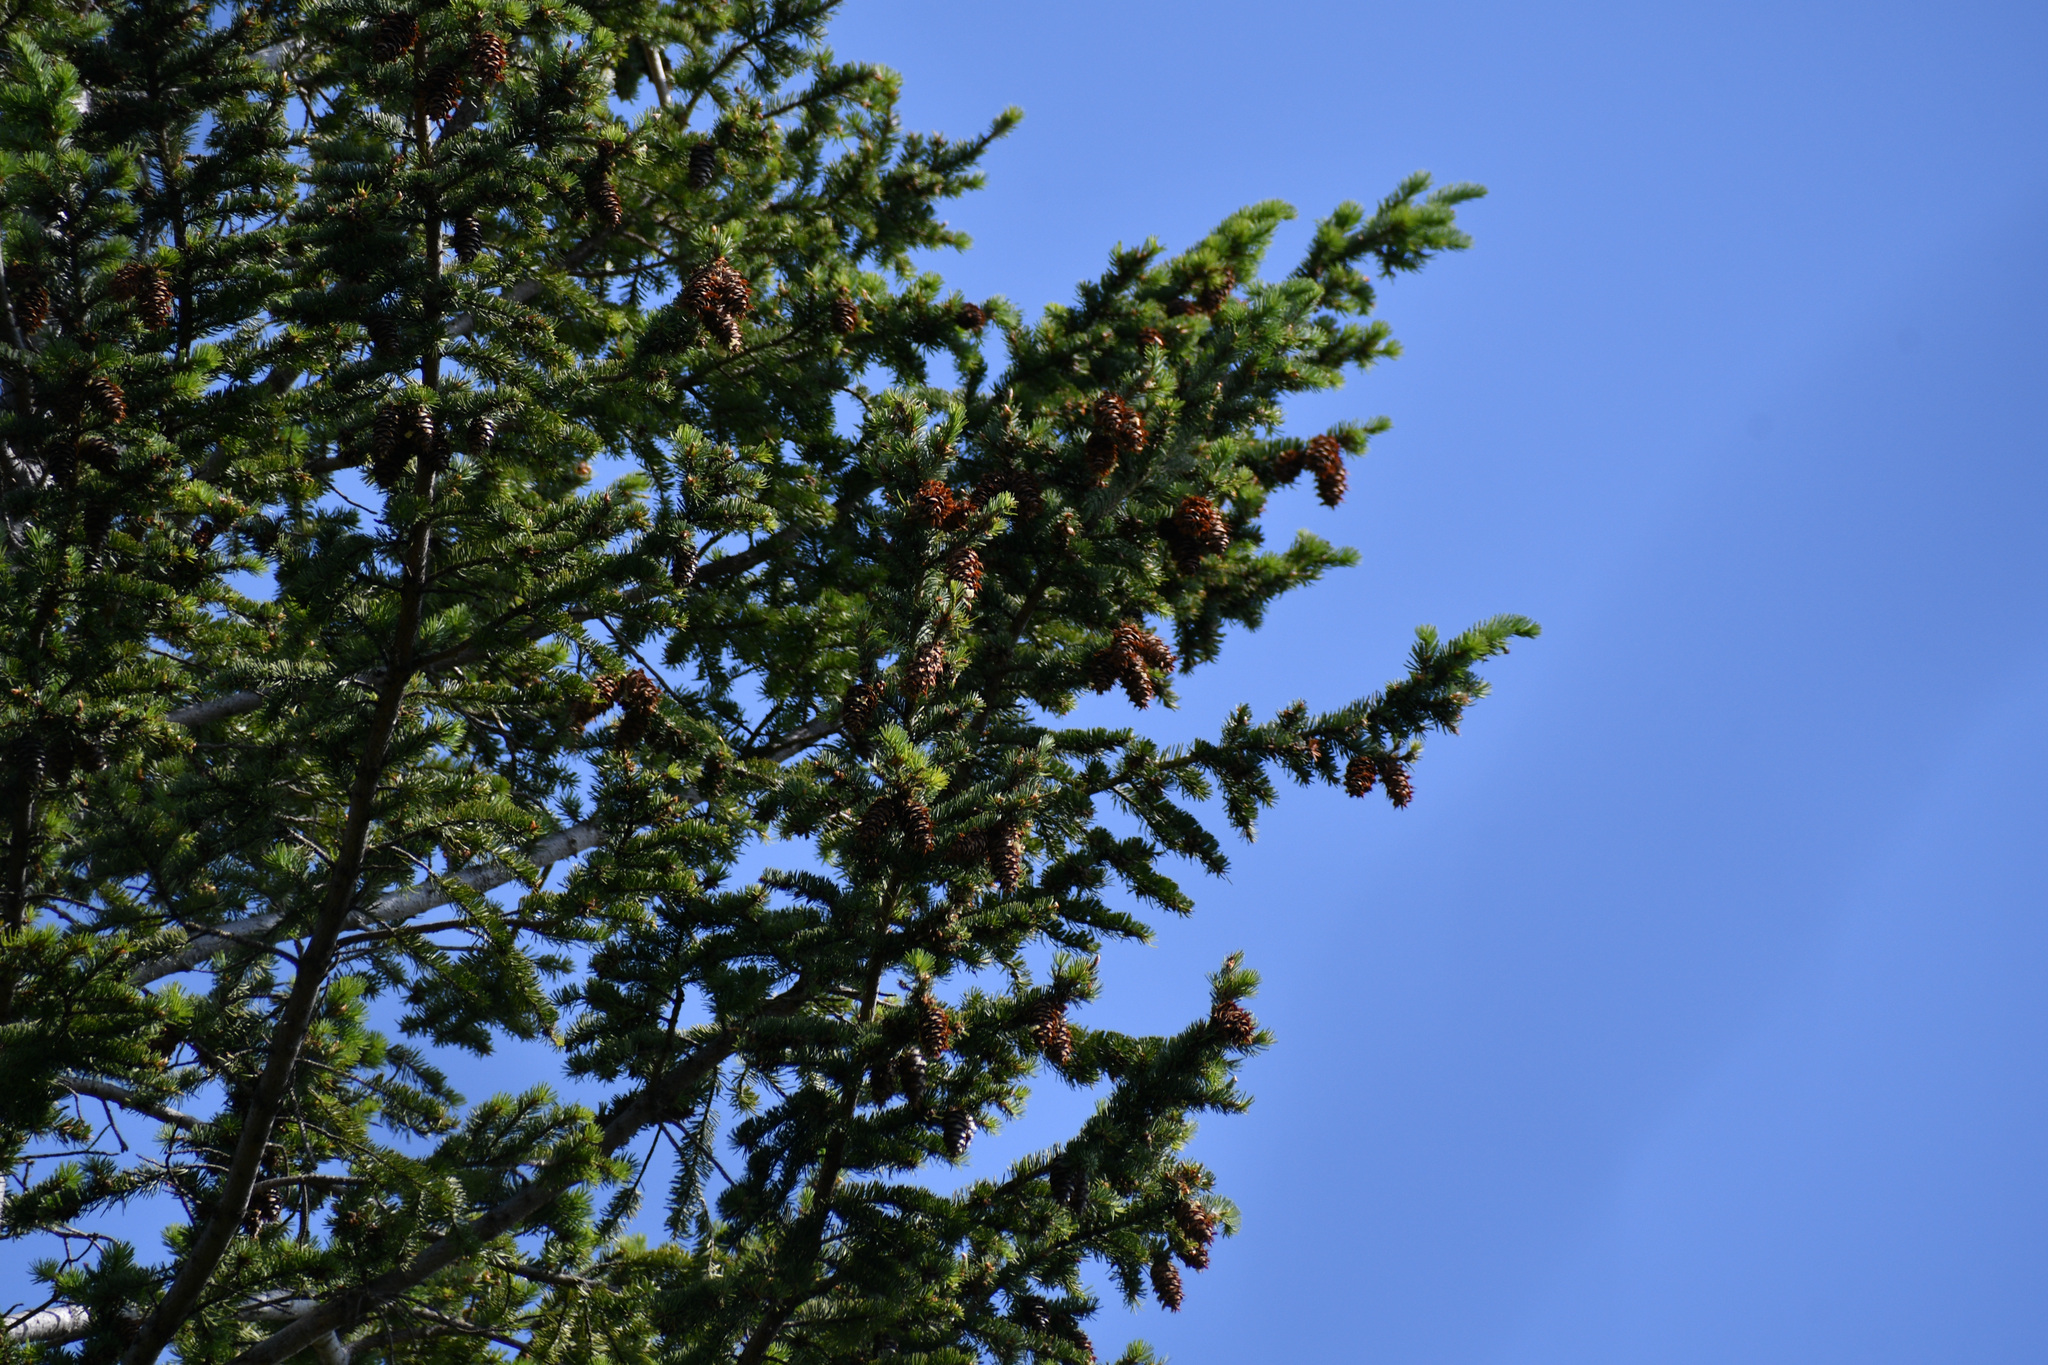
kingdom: Plantae
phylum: Tracheophyta
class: Pinopsida
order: Pinales
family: Pinaceae
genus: Pseudotsuga
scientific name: Pseudotsuga menziesii
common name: Douglas fir
